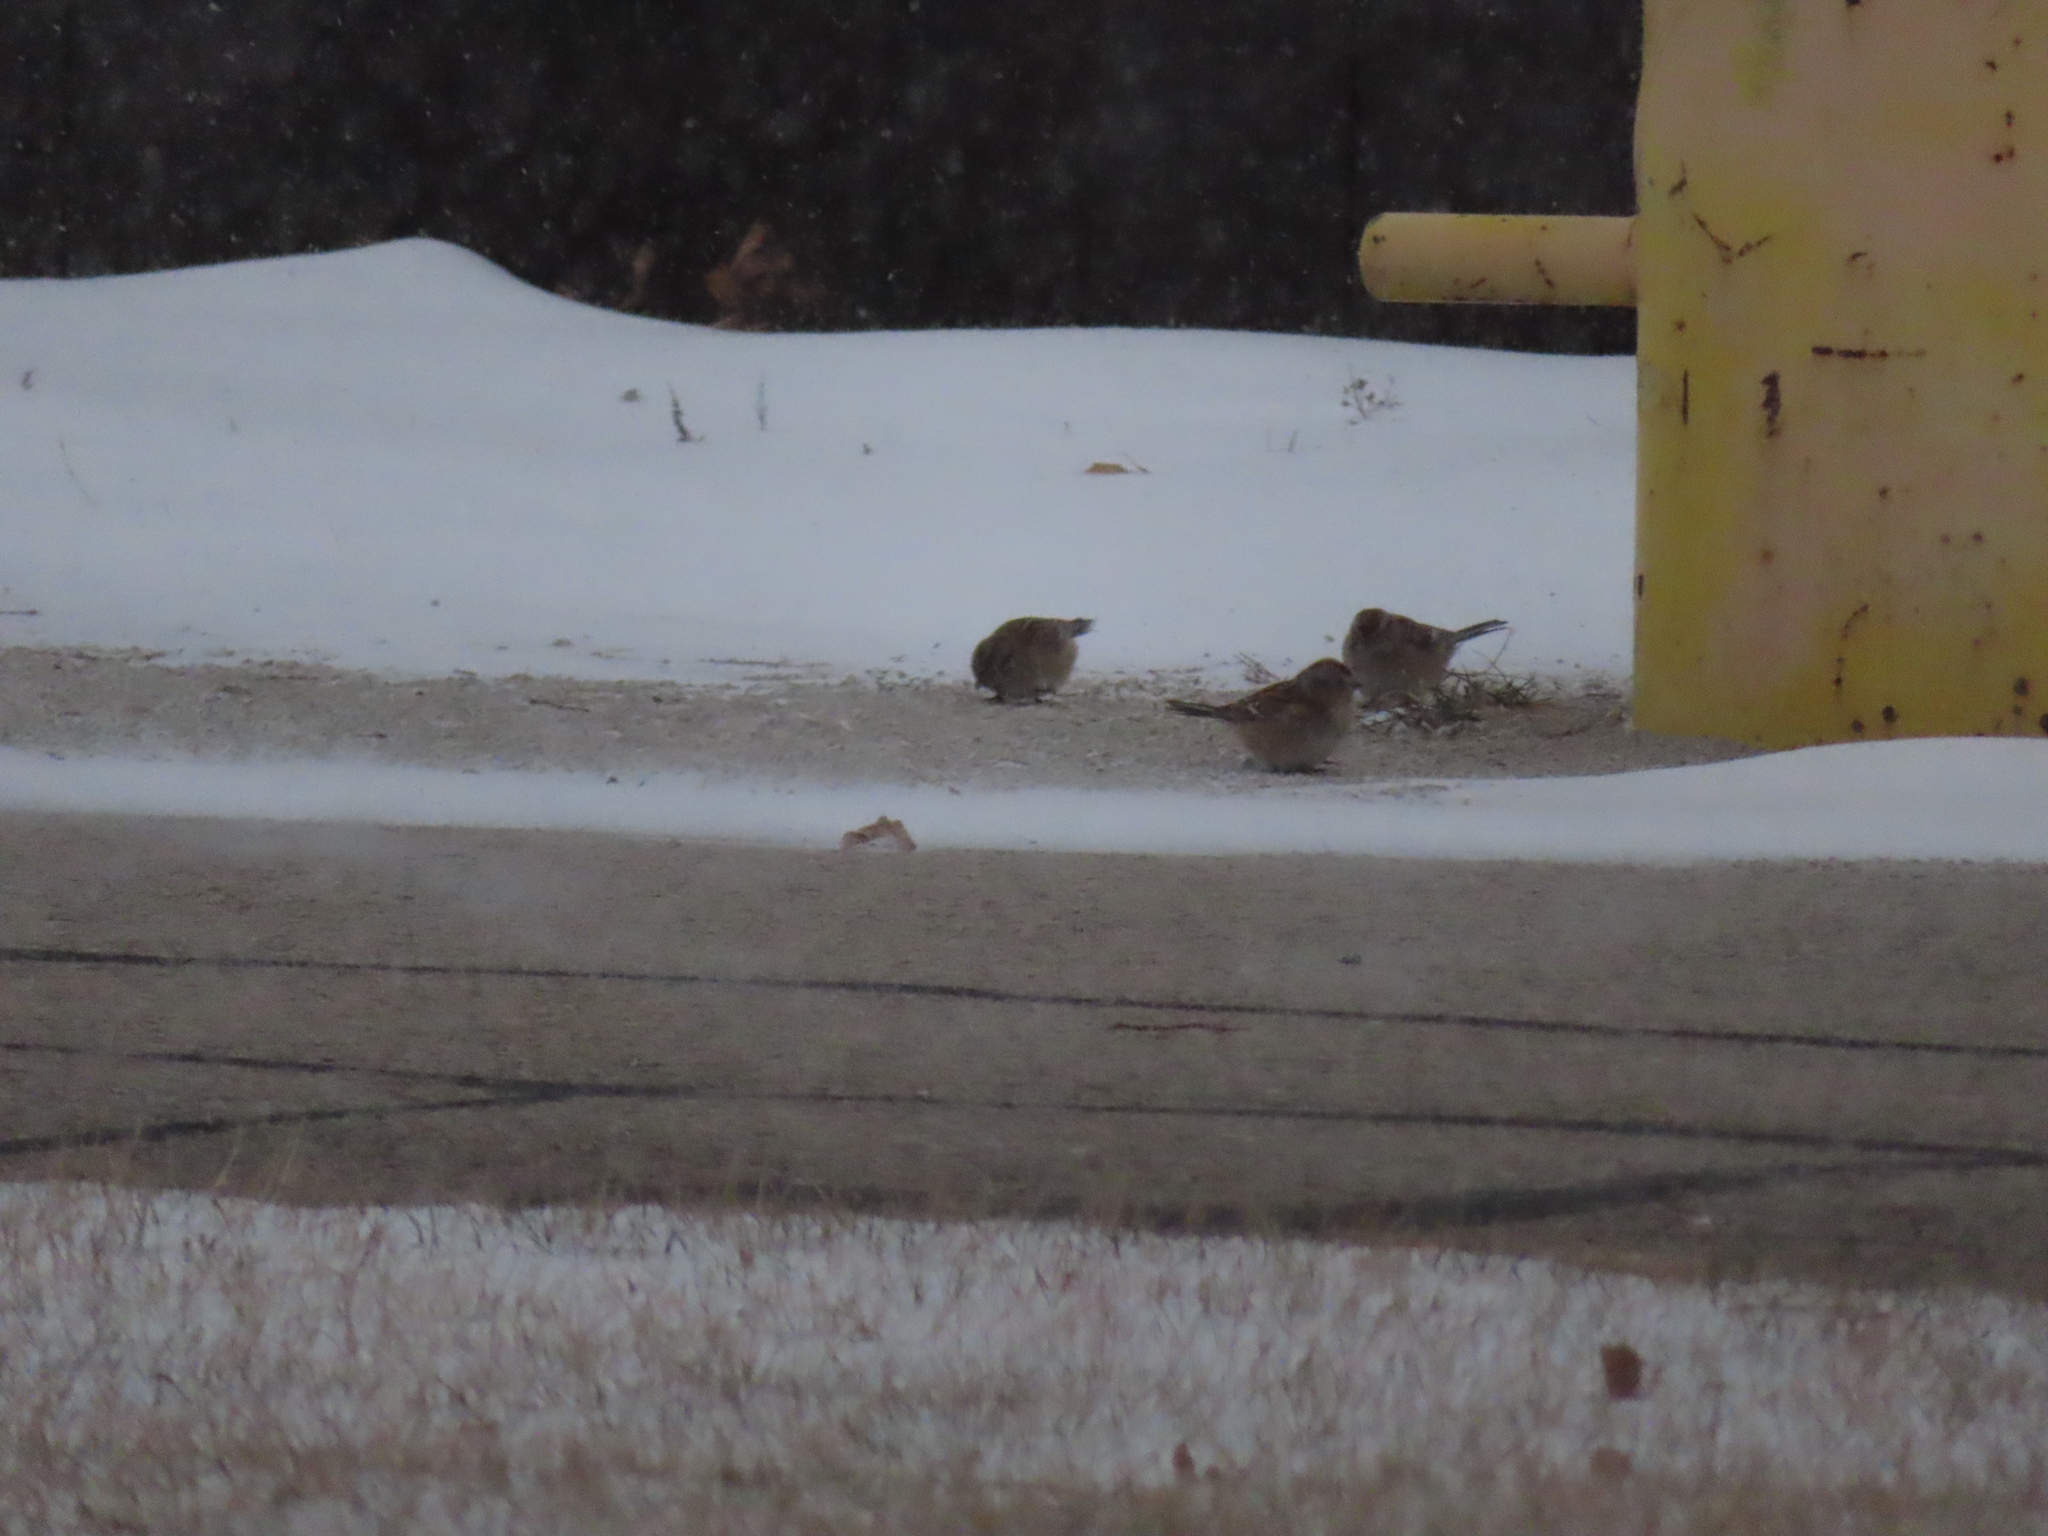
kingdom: Animalia
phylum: Chordata
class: Aves
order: Passeriformes
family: Passerellidae
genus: Spizelloides
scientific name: Spizelloides arborea
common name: American tree sparrow
